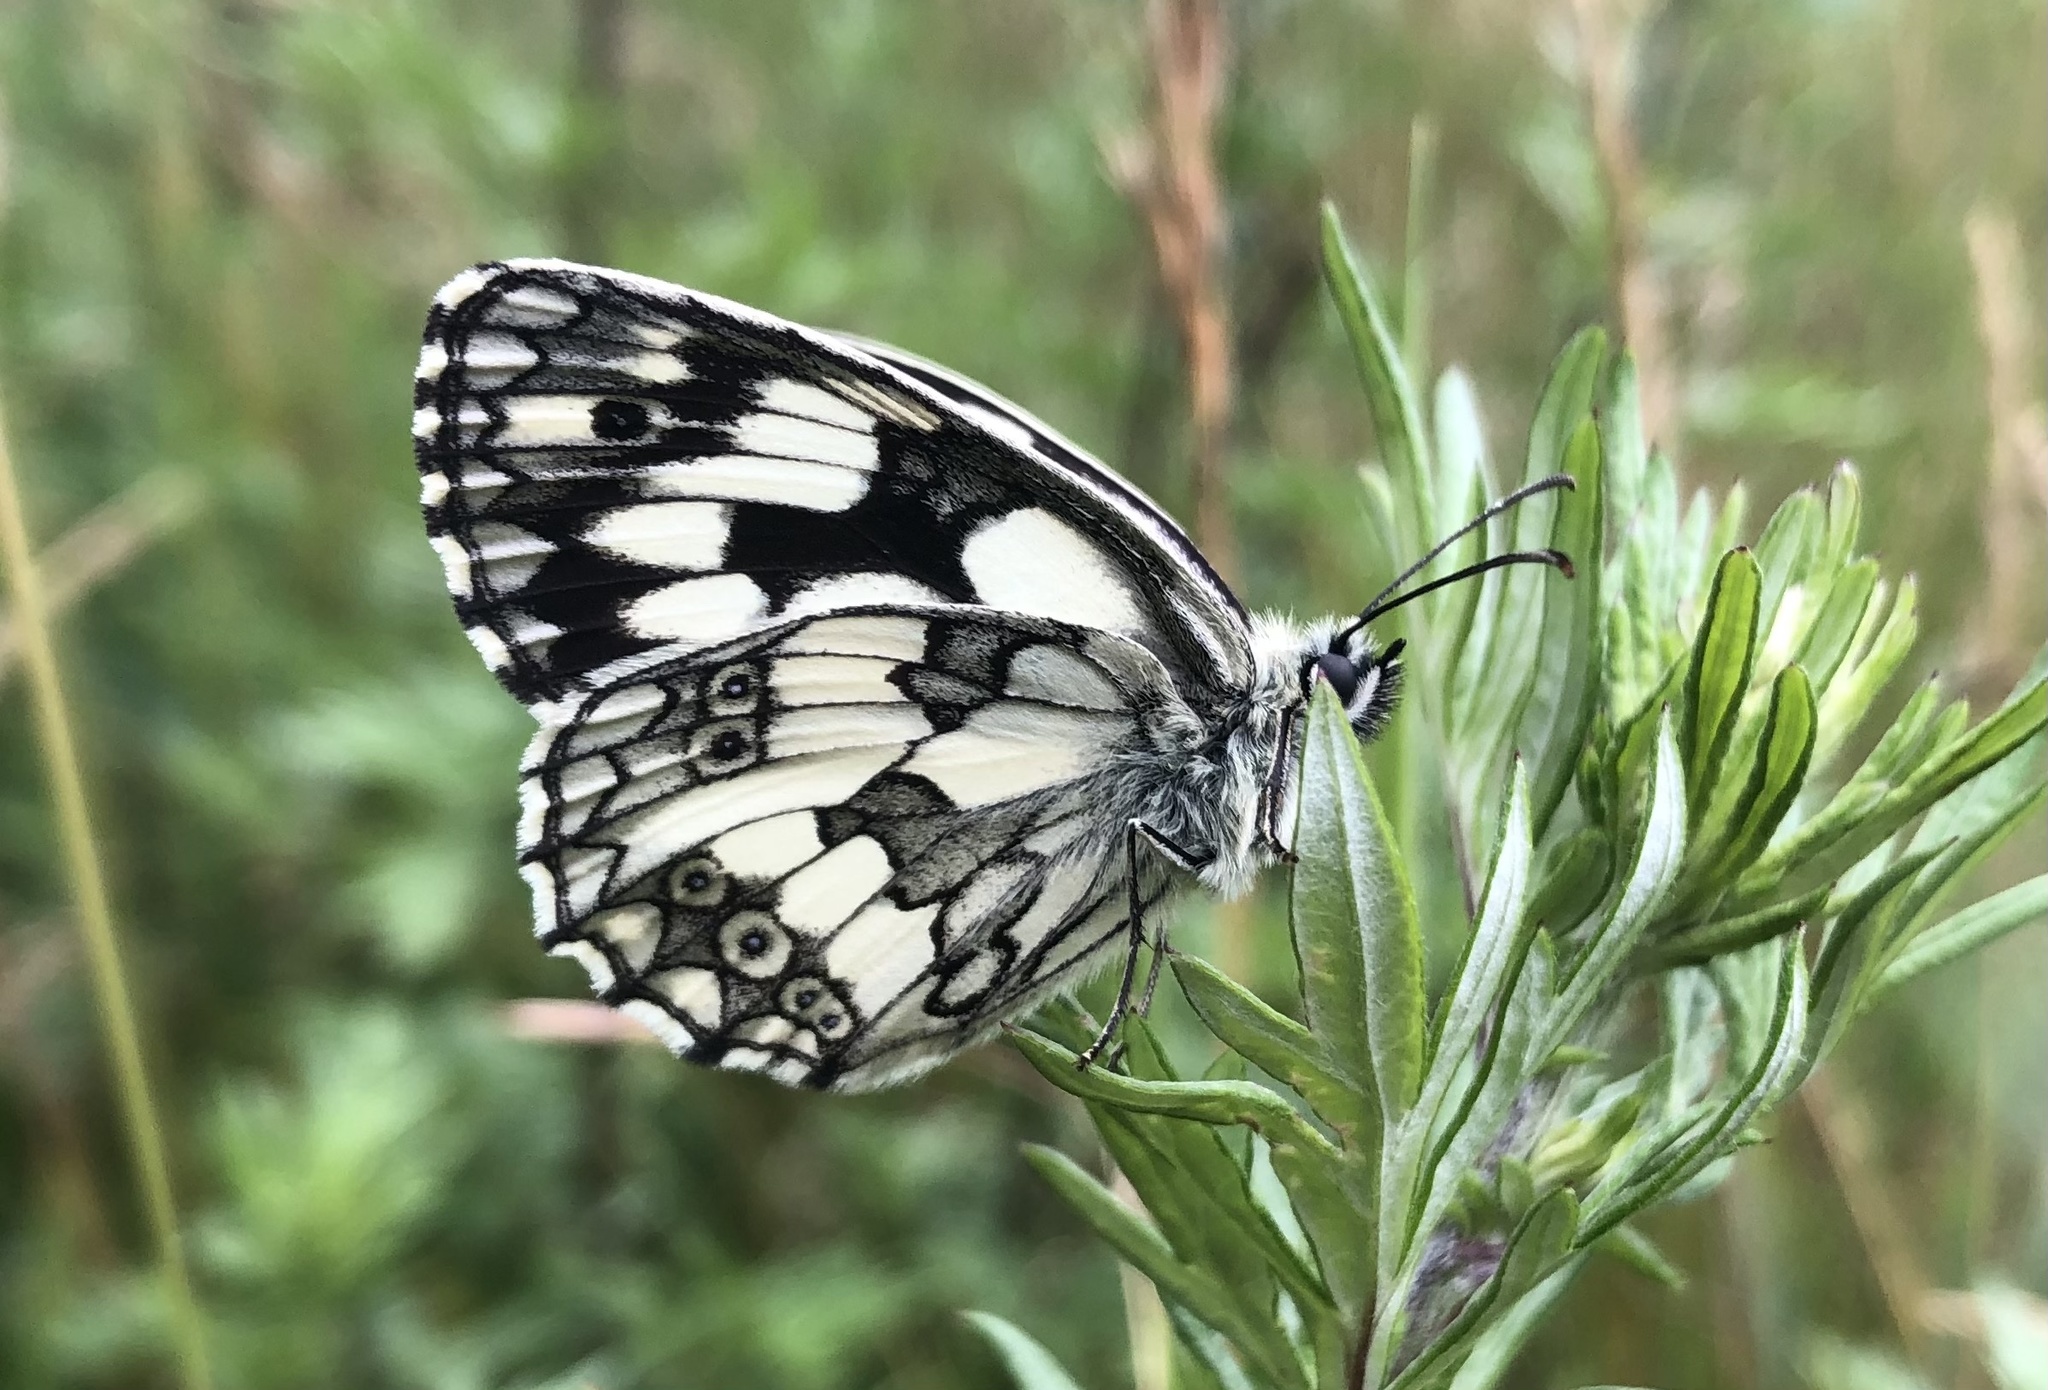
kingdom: Animalia
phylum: Arthropoda
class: Insecta
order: Lepidoptera
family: Nymphalidae
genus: Melanargia
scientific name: Melanargia galathea
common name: Marbled white
